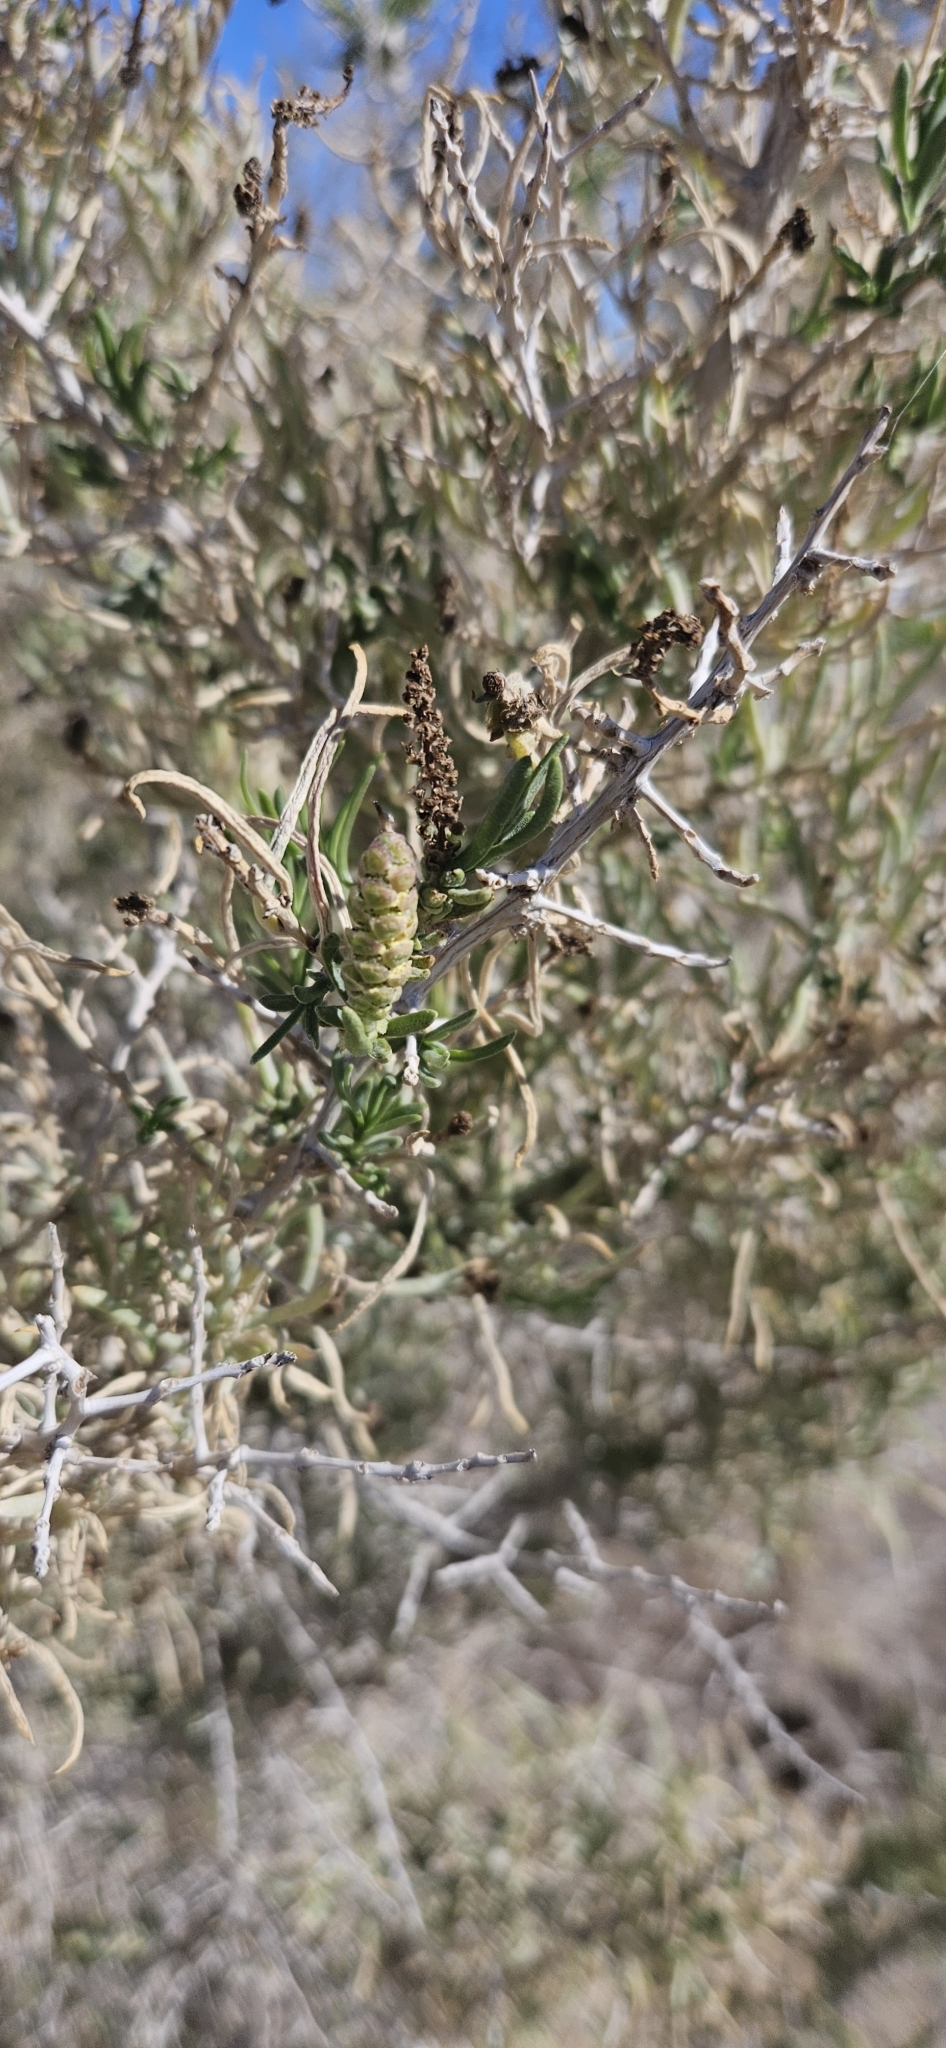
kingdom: Plantae
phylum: Tracheophyta
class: Magnoliopsida
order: Caryophyllales
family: Sarcobataceae
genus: Sarcobatus
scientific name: Sarcobatus vermiculatus
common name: Greasewood
